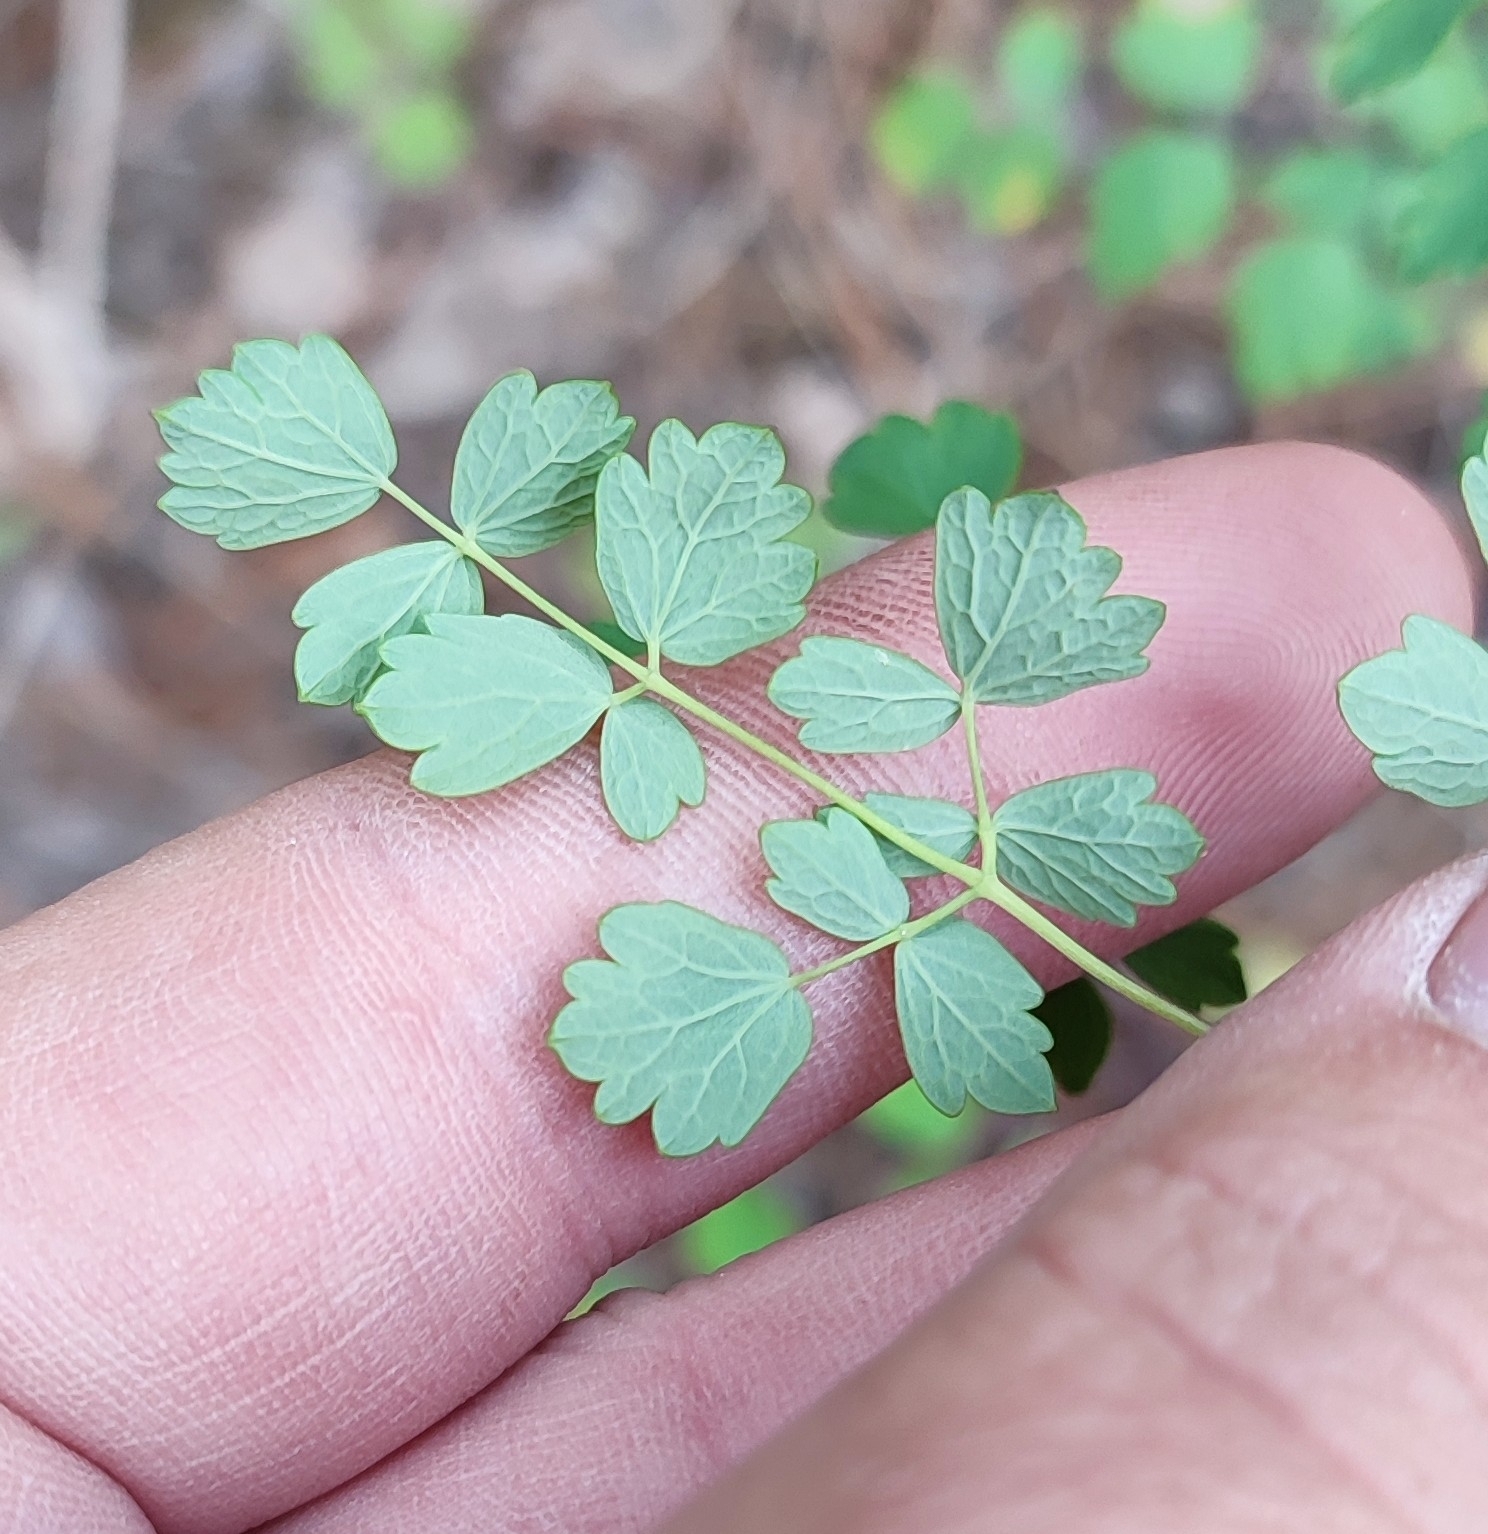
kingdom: Plantae
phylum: Tracheophyta
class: Magnoliopsida
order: Ranunculales
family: Ranunculaceae
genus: Thalictrum
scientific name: Thalictrum minus
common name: Lesser meadow-rue
